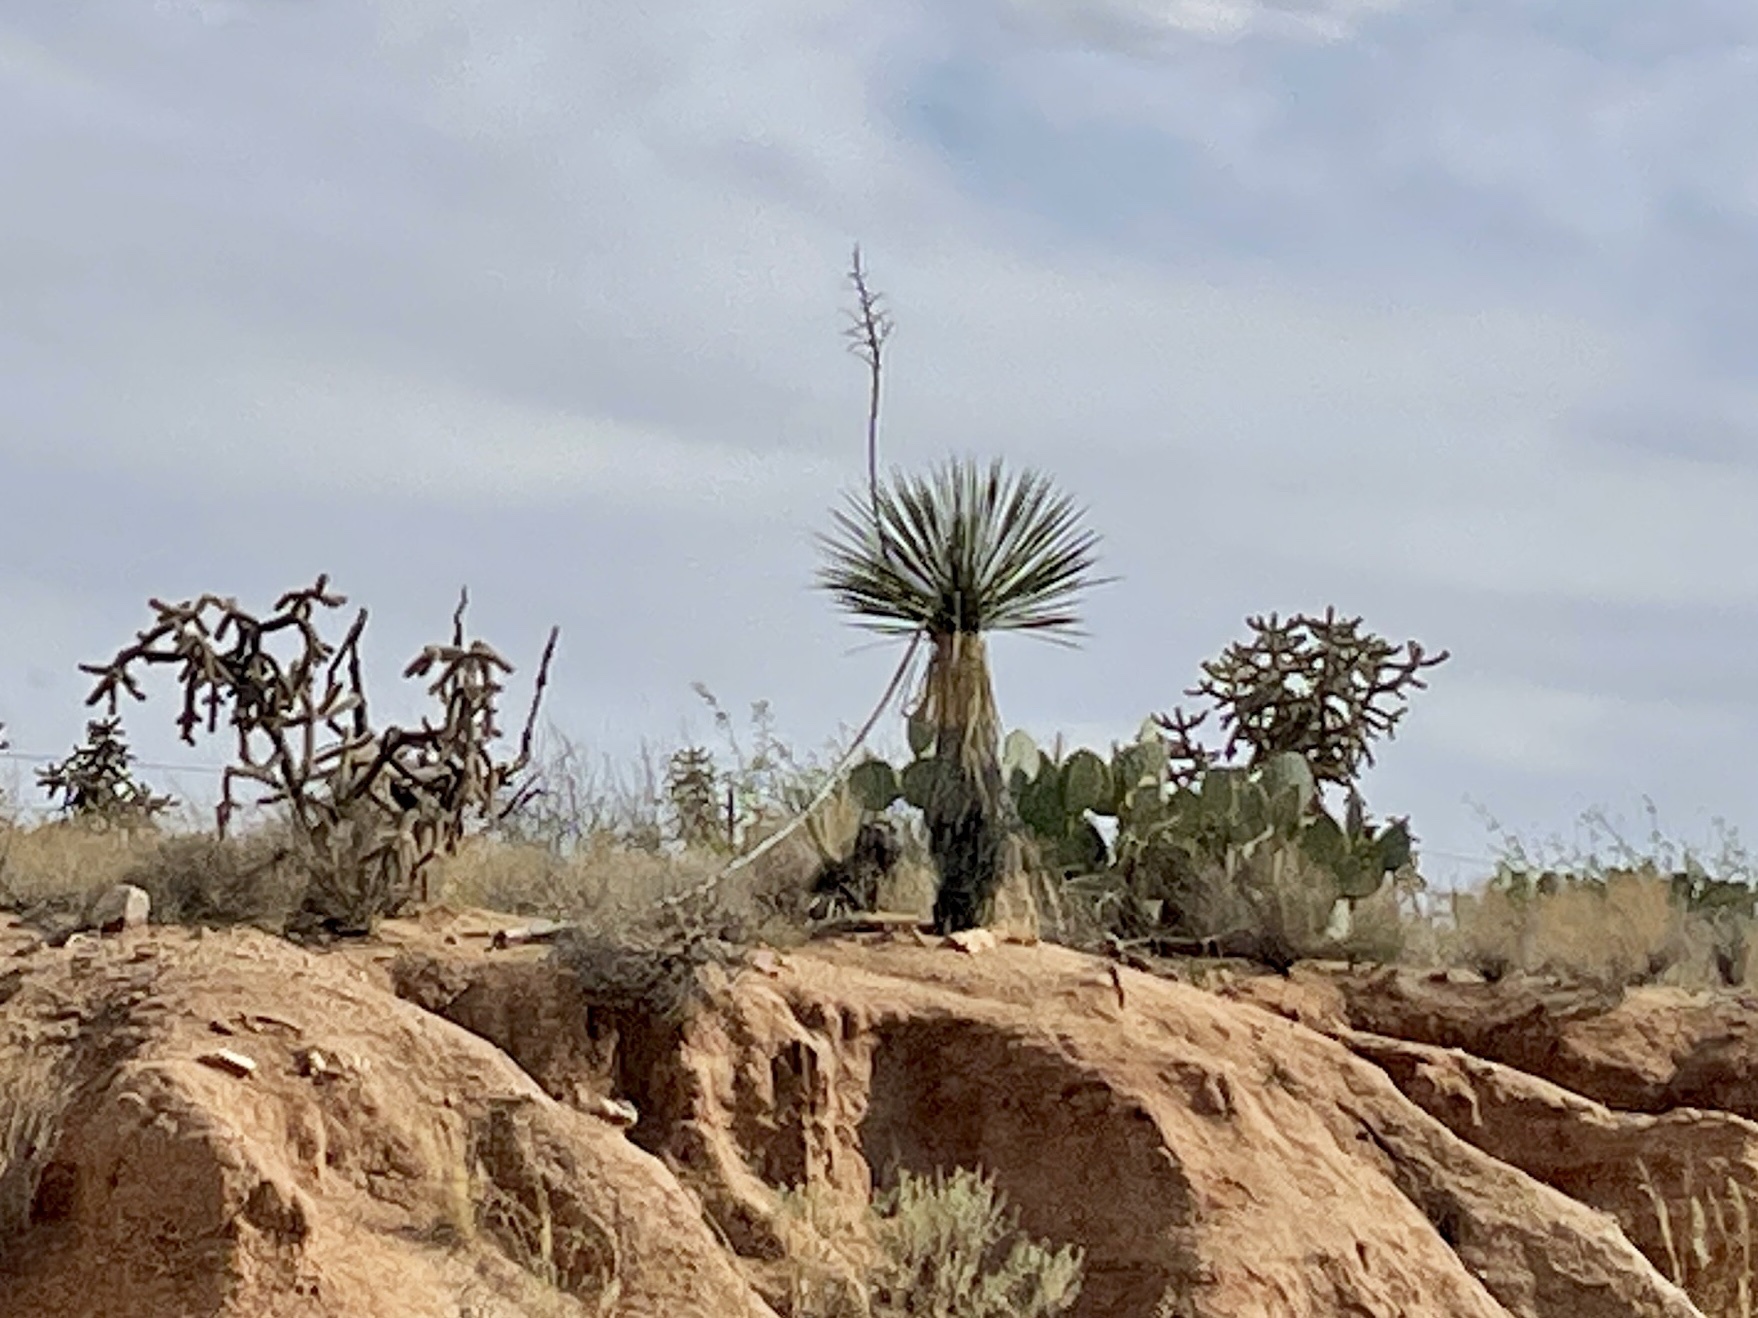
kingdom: Plantae
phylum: Tracheophyta
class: Liliopsida
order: Asparagales
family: Asparagaceae
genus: Yucca
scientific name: Yucca elata
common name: Palmella
